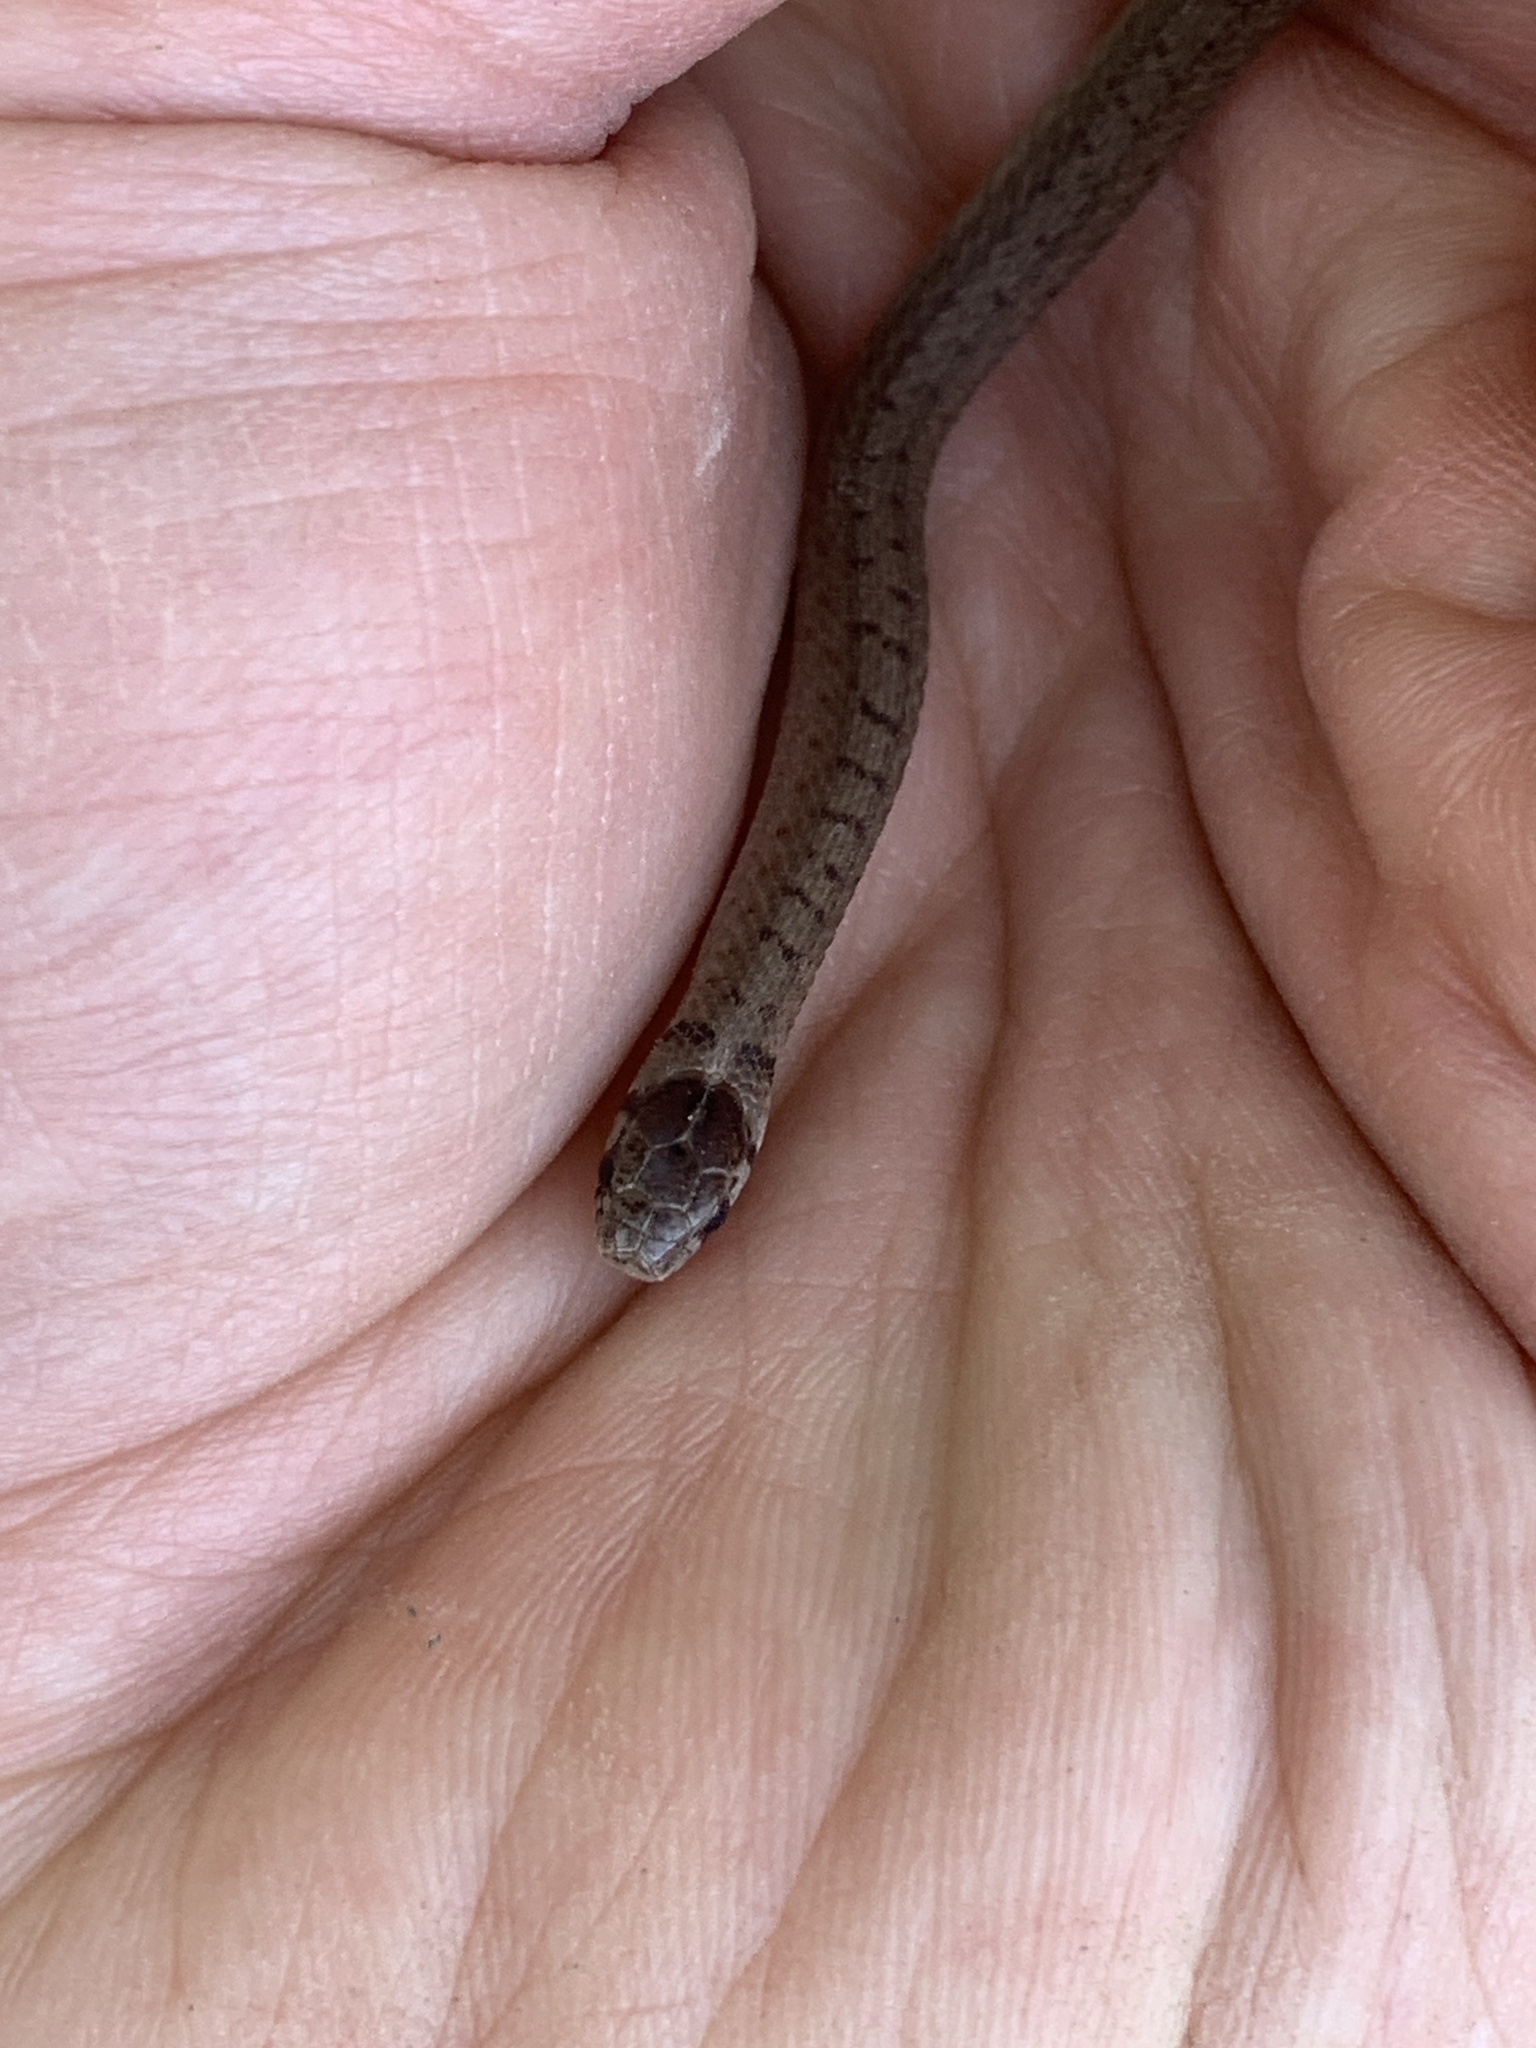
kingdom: Animalia
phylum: Chordata
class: Squamata
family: Colubridae
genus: Storeria
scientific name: Storeria dekayi
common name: (dekay’s) brown snake
